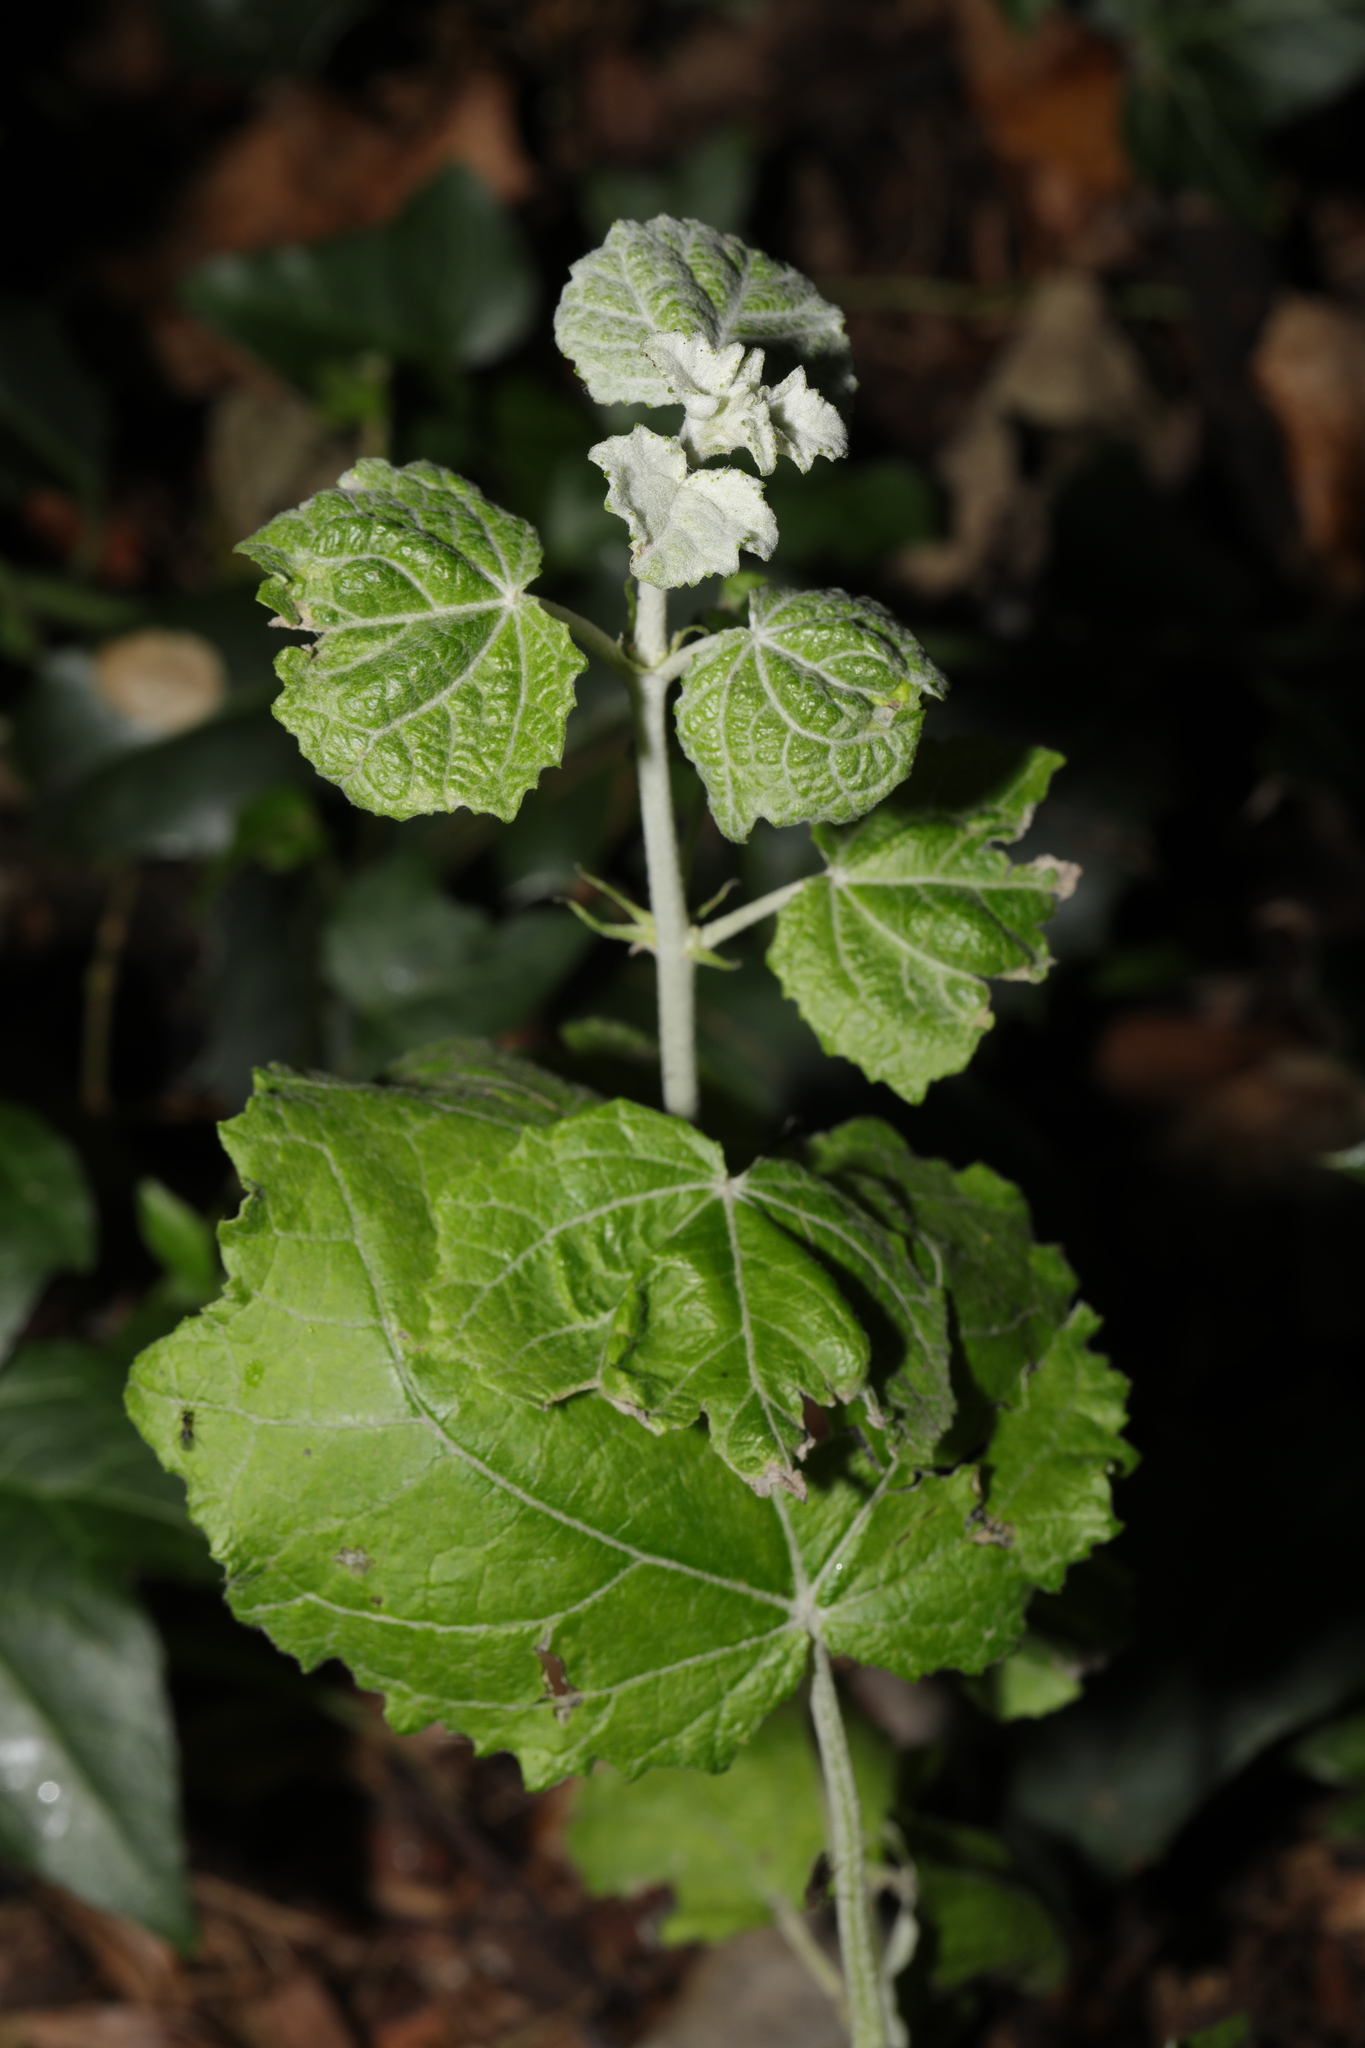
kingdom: Plantae
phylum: Tracheophyta
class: Magnoliopsida
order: Malpighiales
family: Salicaceae
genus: Populus
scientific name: Populus alba
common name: White poplar
